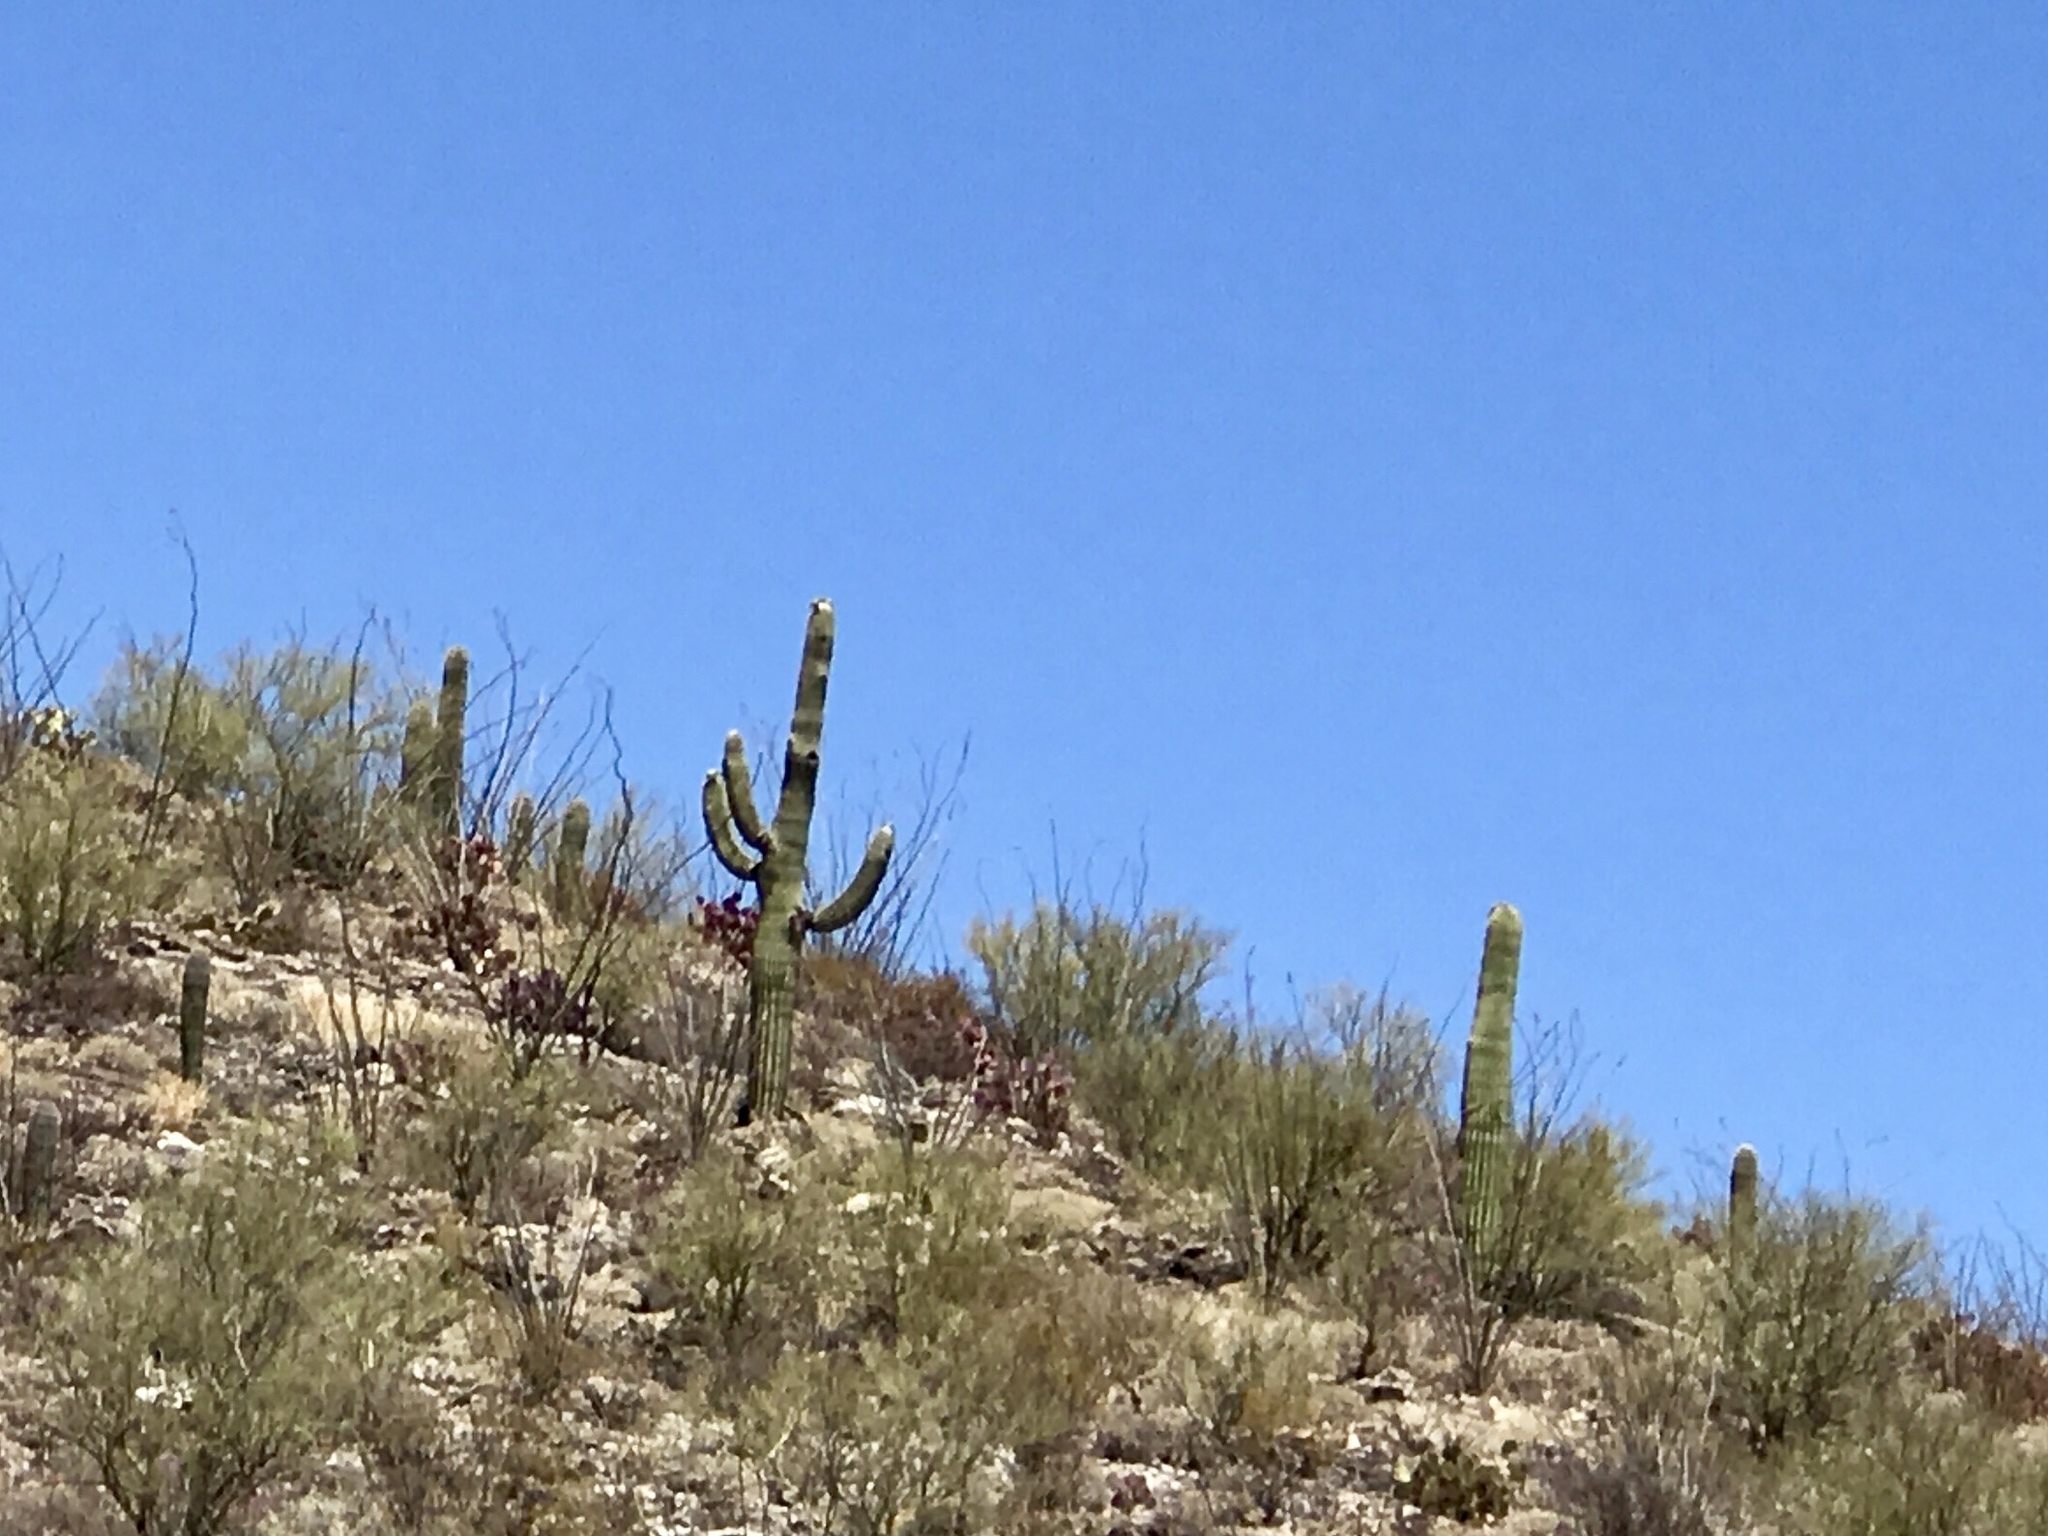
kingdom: Plantae
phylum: Tracheophyta
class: Magnoliopsida
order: Caryophyllales
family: Cactaceae
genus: Carnegiea
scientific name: Carnegiea gigantea
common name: Saguaro
